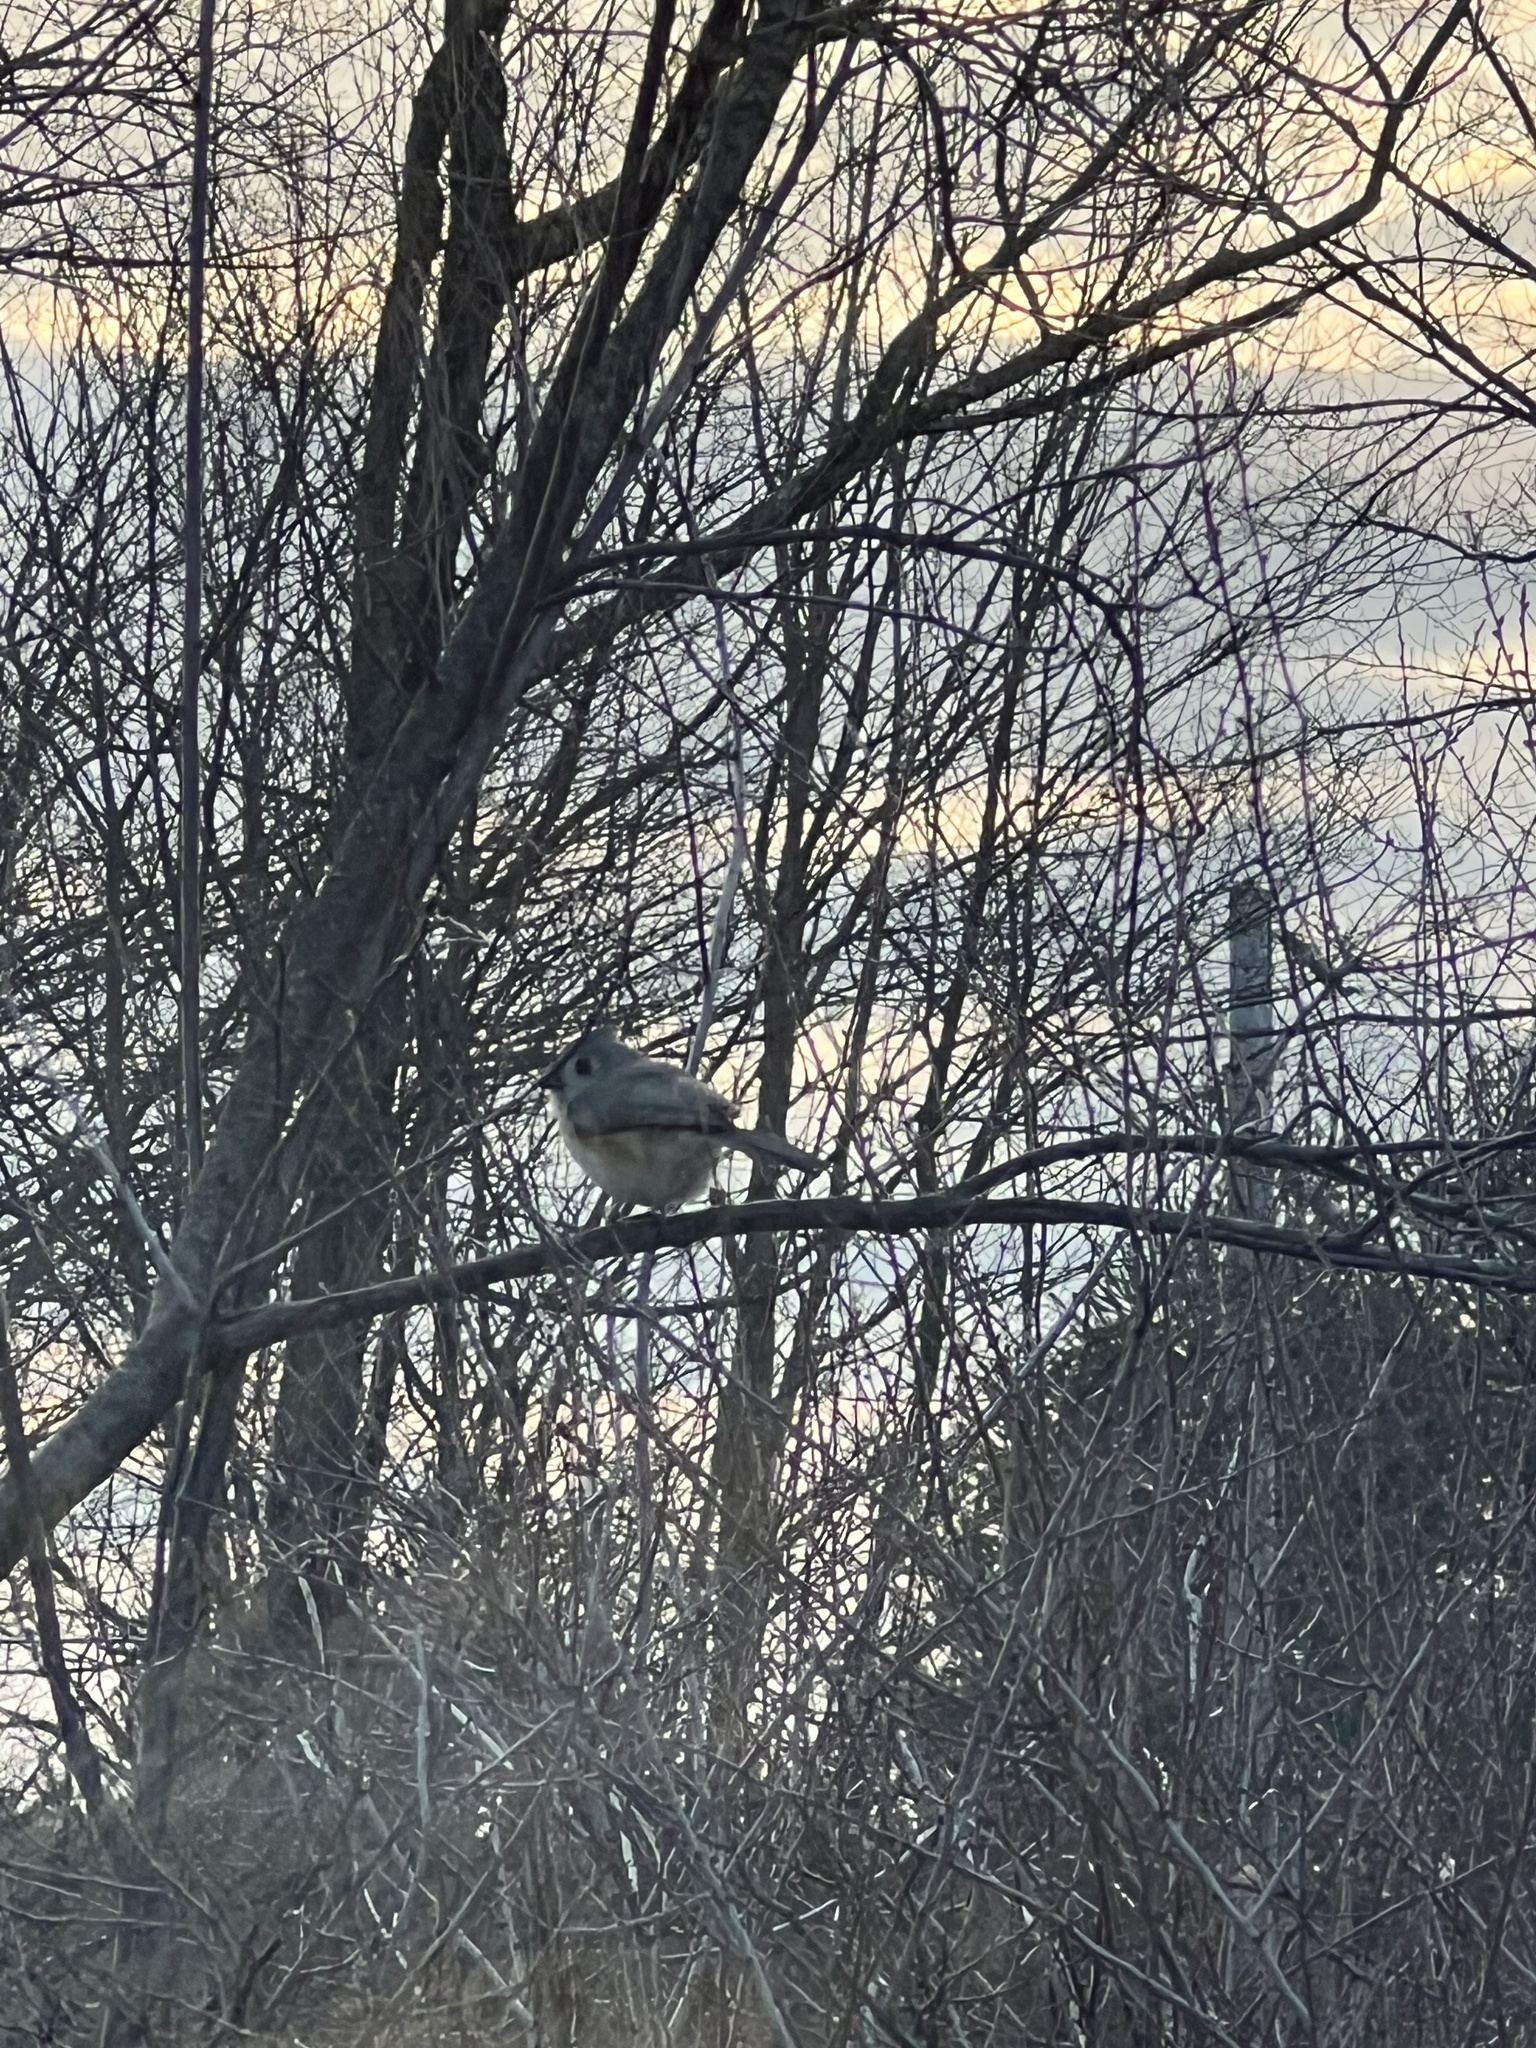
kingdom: Animalia
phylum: Chordata
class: Aves
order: Passeriformes
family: Paridae
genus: Baeolophus
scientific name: Baeolophus bicolor
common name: Tufted titmouse
